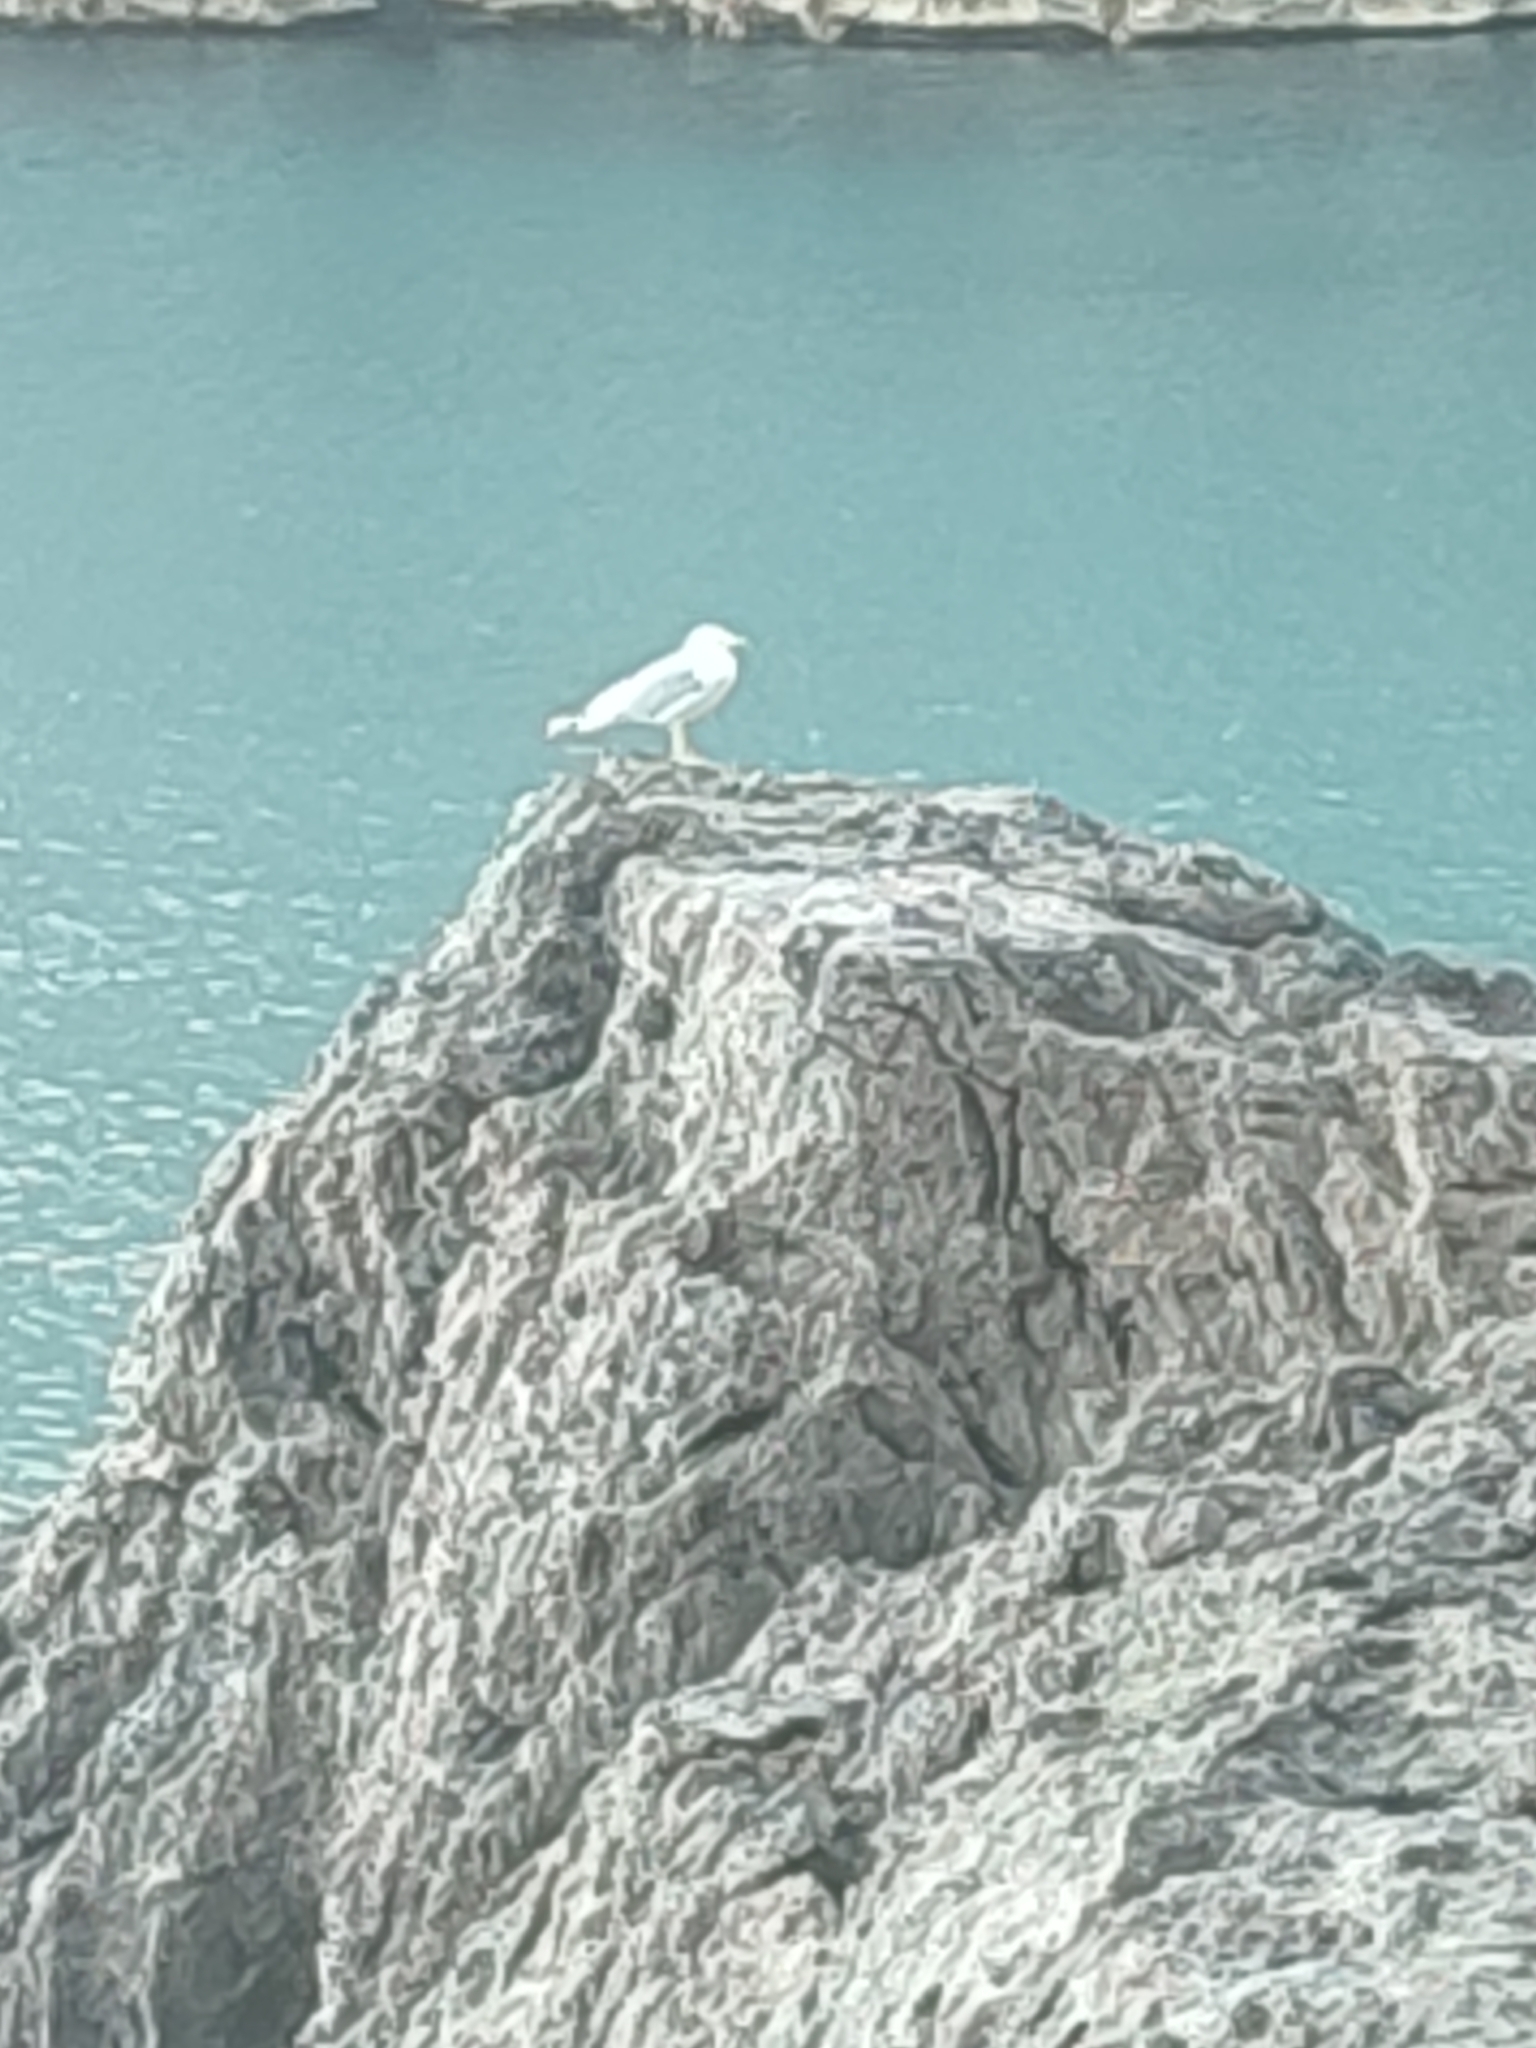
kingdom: Animalia
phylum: Chordata
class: Aves
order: Charadriiformes
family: Laridae
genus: Larus
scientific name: Larus michahellis
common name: Yellow-legged gull
